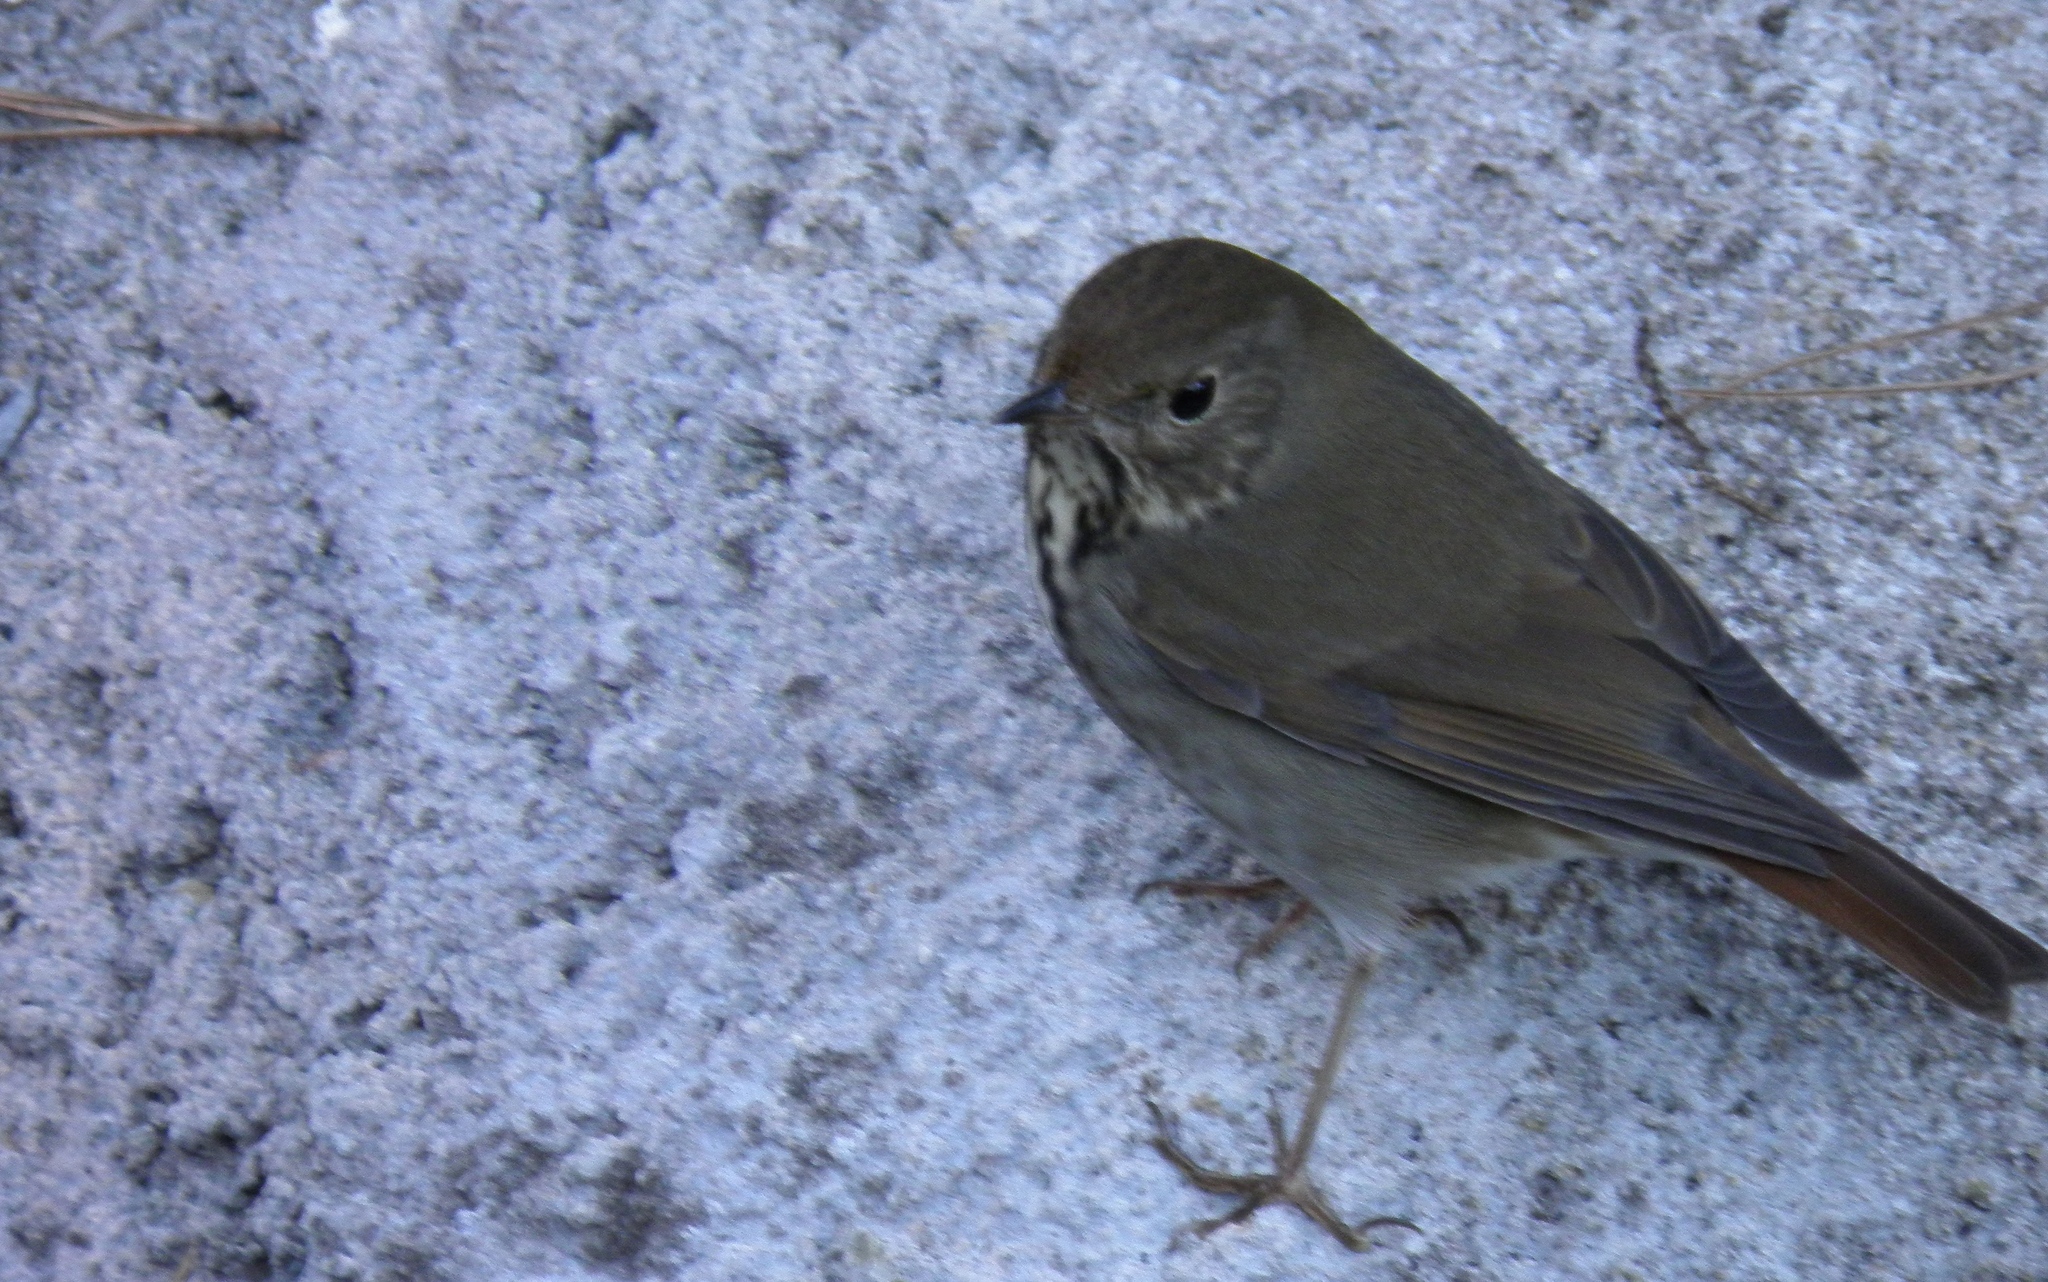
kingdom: Animalia
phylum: Chordata
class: Aves
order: Passeriformes
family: Turdidae
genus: Catharus
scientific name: Catharus guttatus
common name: Hermit thrush
